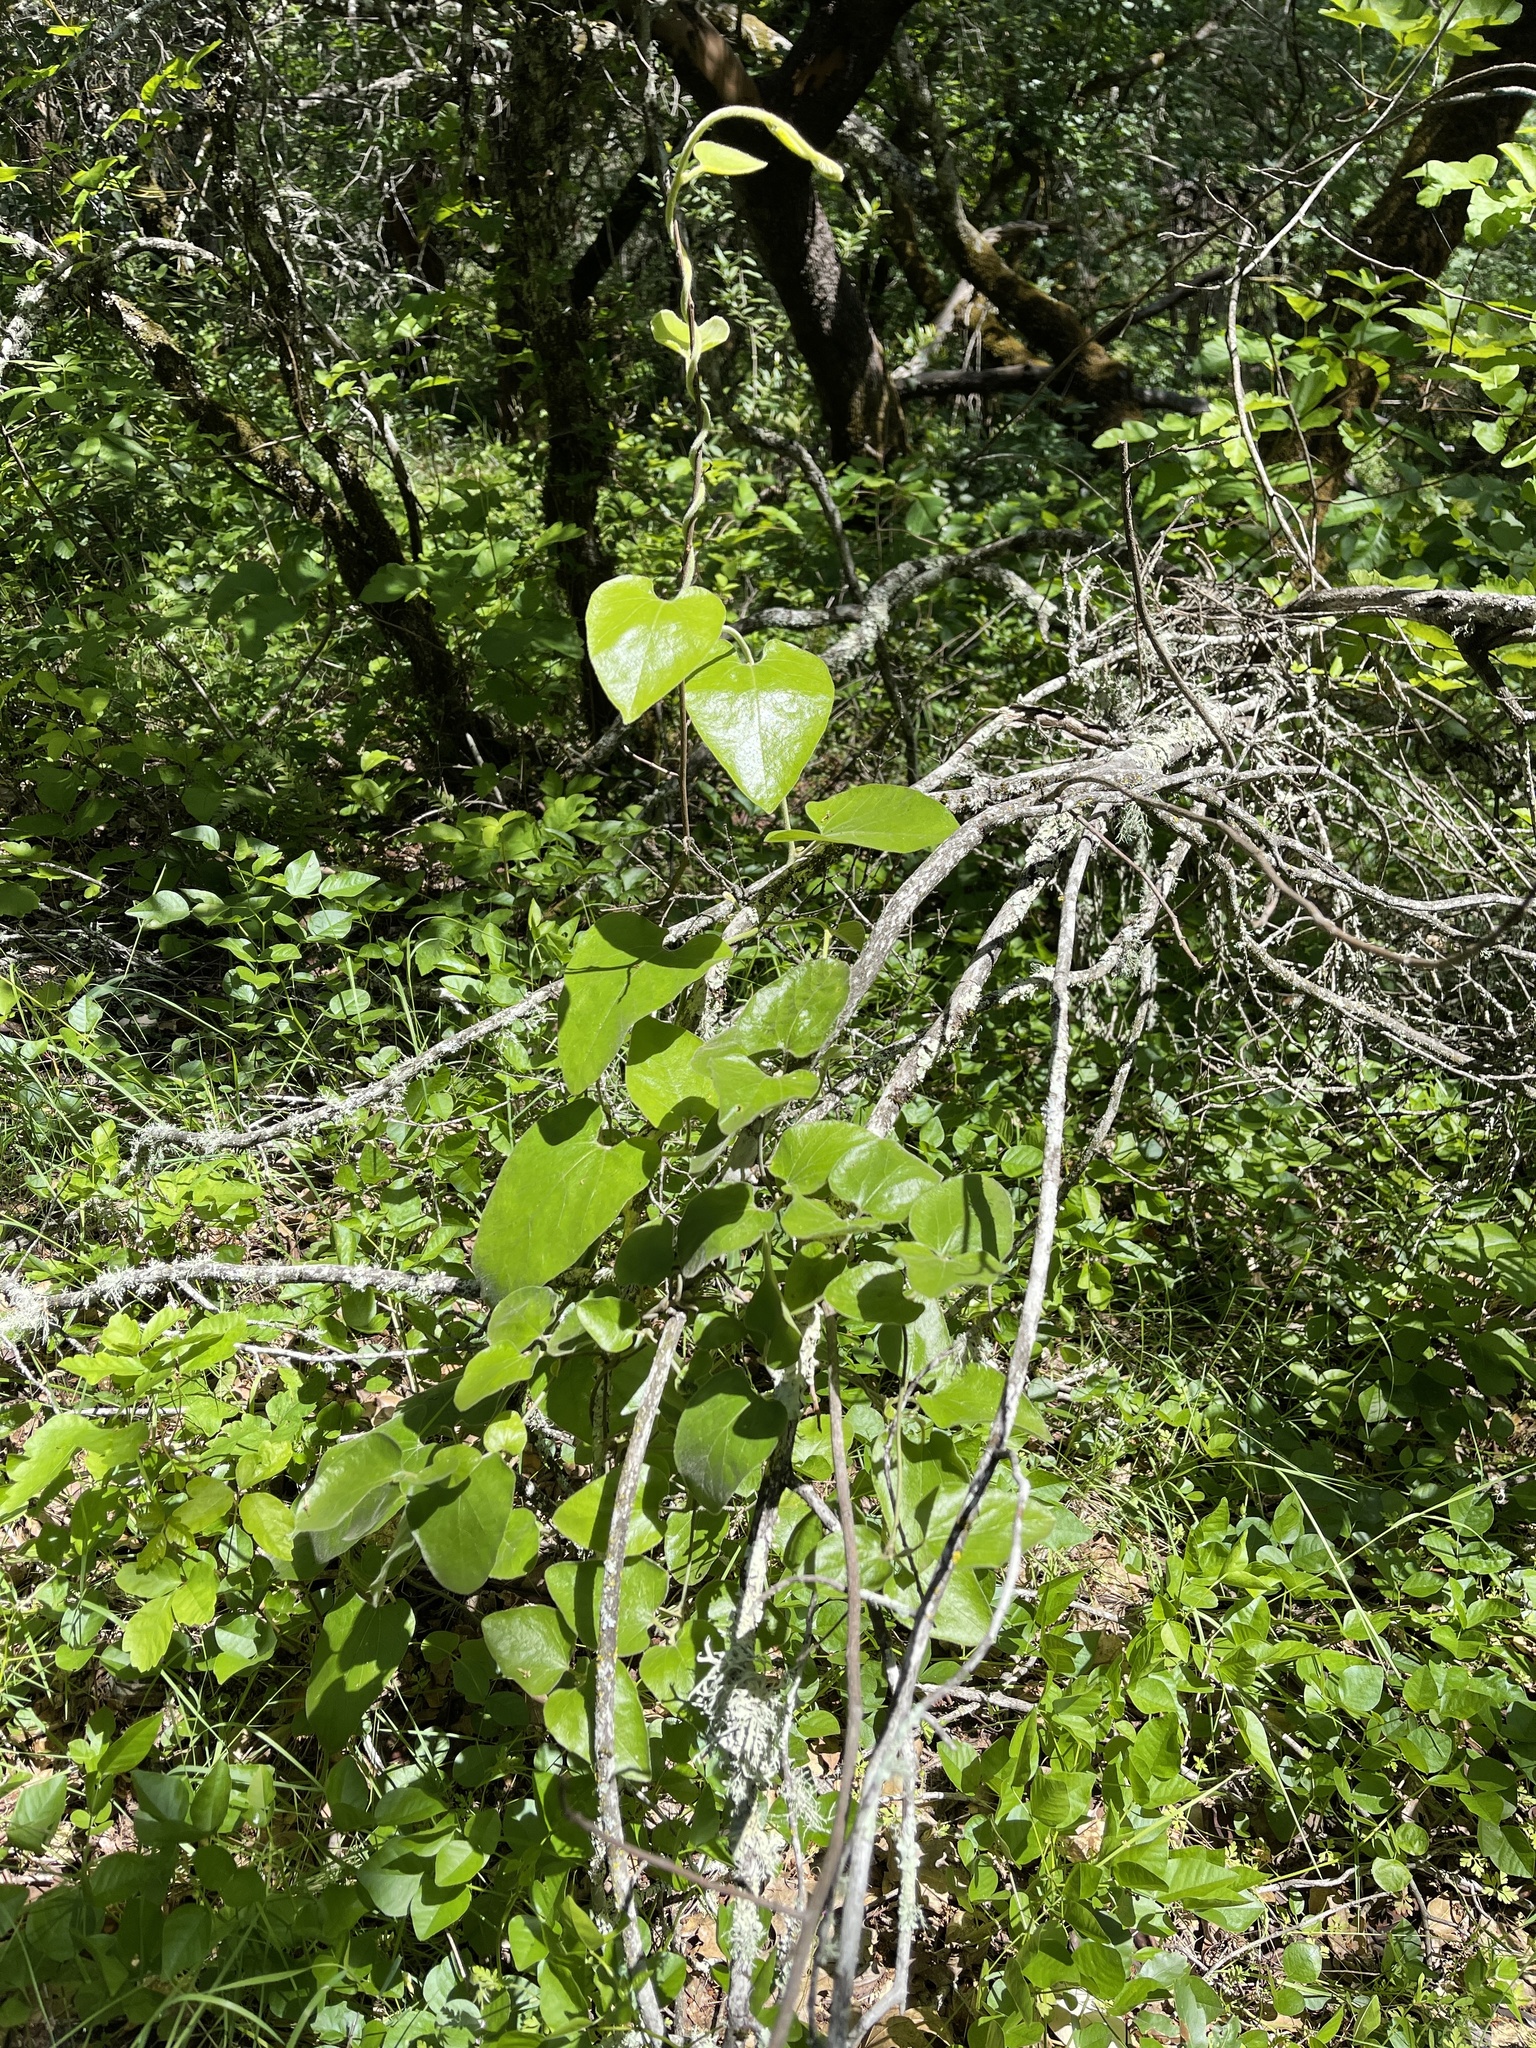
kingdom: Plantae
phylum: Tracheophyta
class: Magnoliopsida
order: Piperales
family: Aristolochiaceae
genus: Isotrema
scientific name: Isotrema californicum
